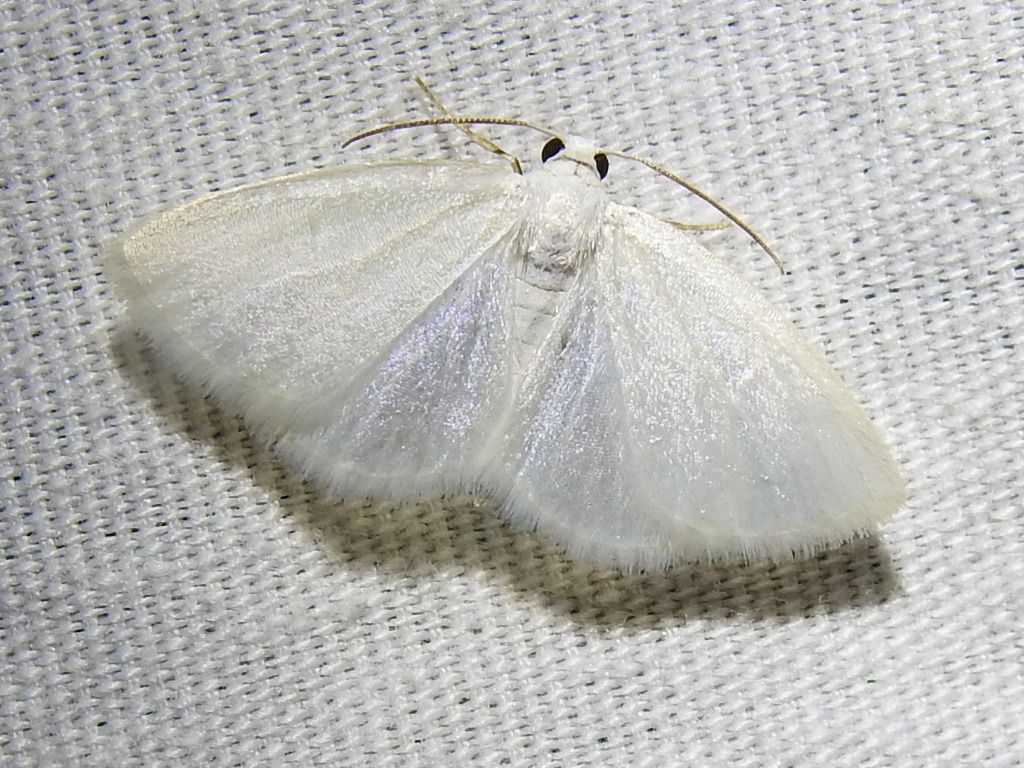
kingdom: Animalia
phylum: Arthropoda
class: Insecta
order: Lepidoptera
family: Geometridae
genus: Lomographa
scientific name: Lomographa vestaliata
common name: White spring moth
